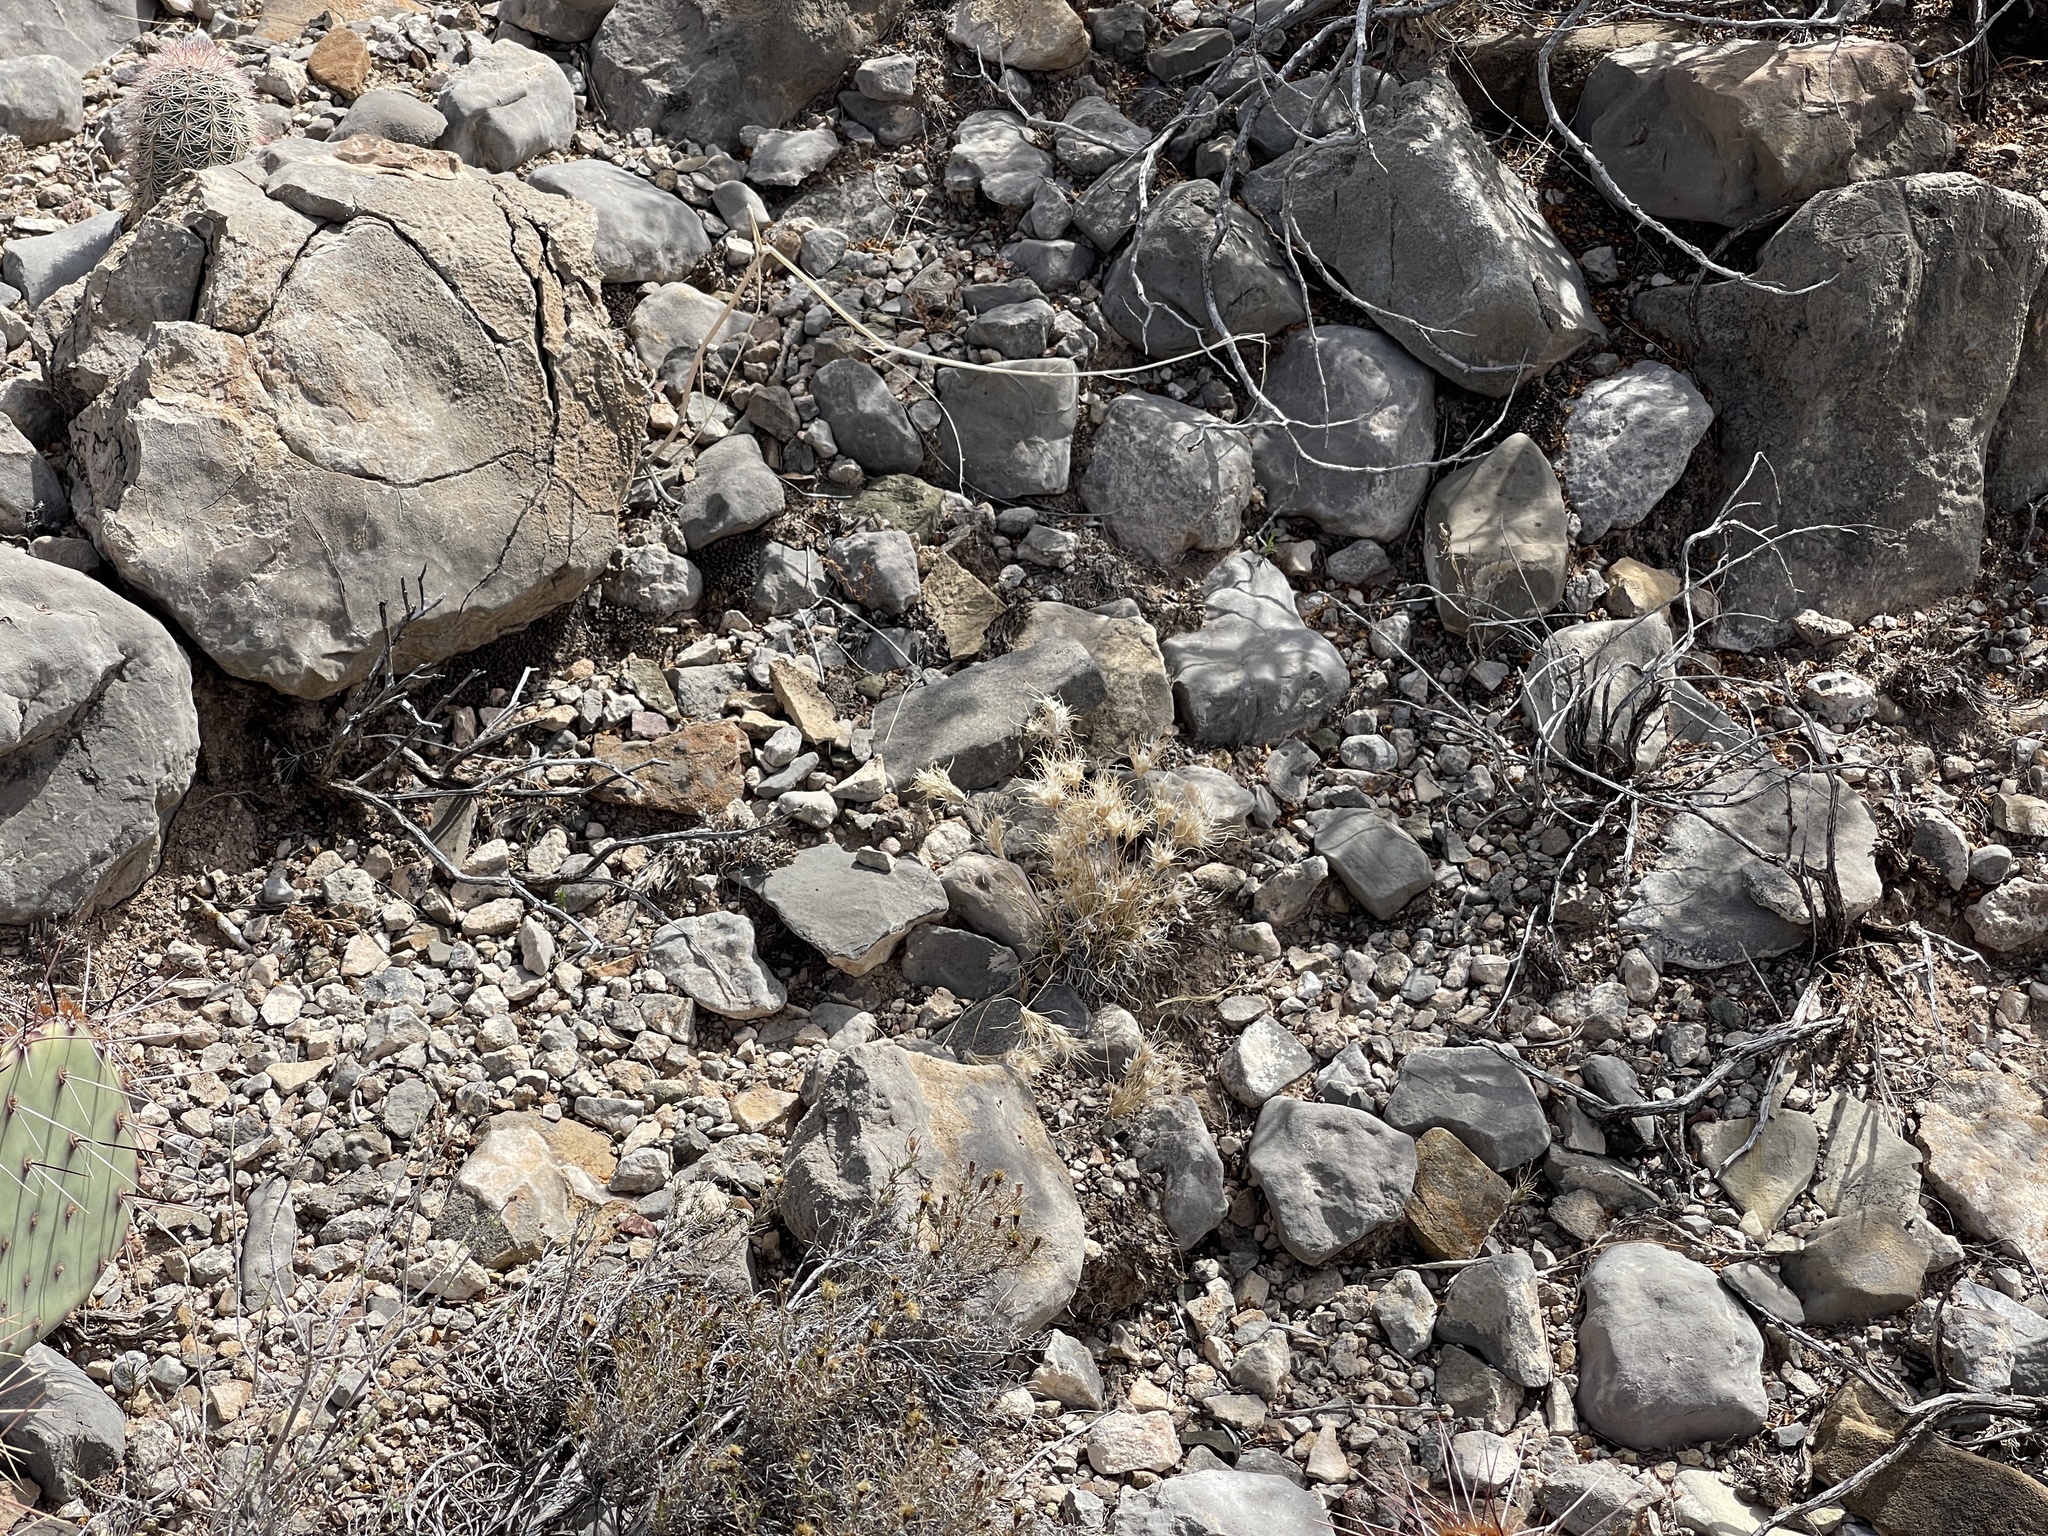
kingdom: Plantae
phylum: Tracheophyta
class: Liliopsida
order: Poales
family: Poaceae
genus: Dasyochloa
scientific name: Dasyochloa pulchella
